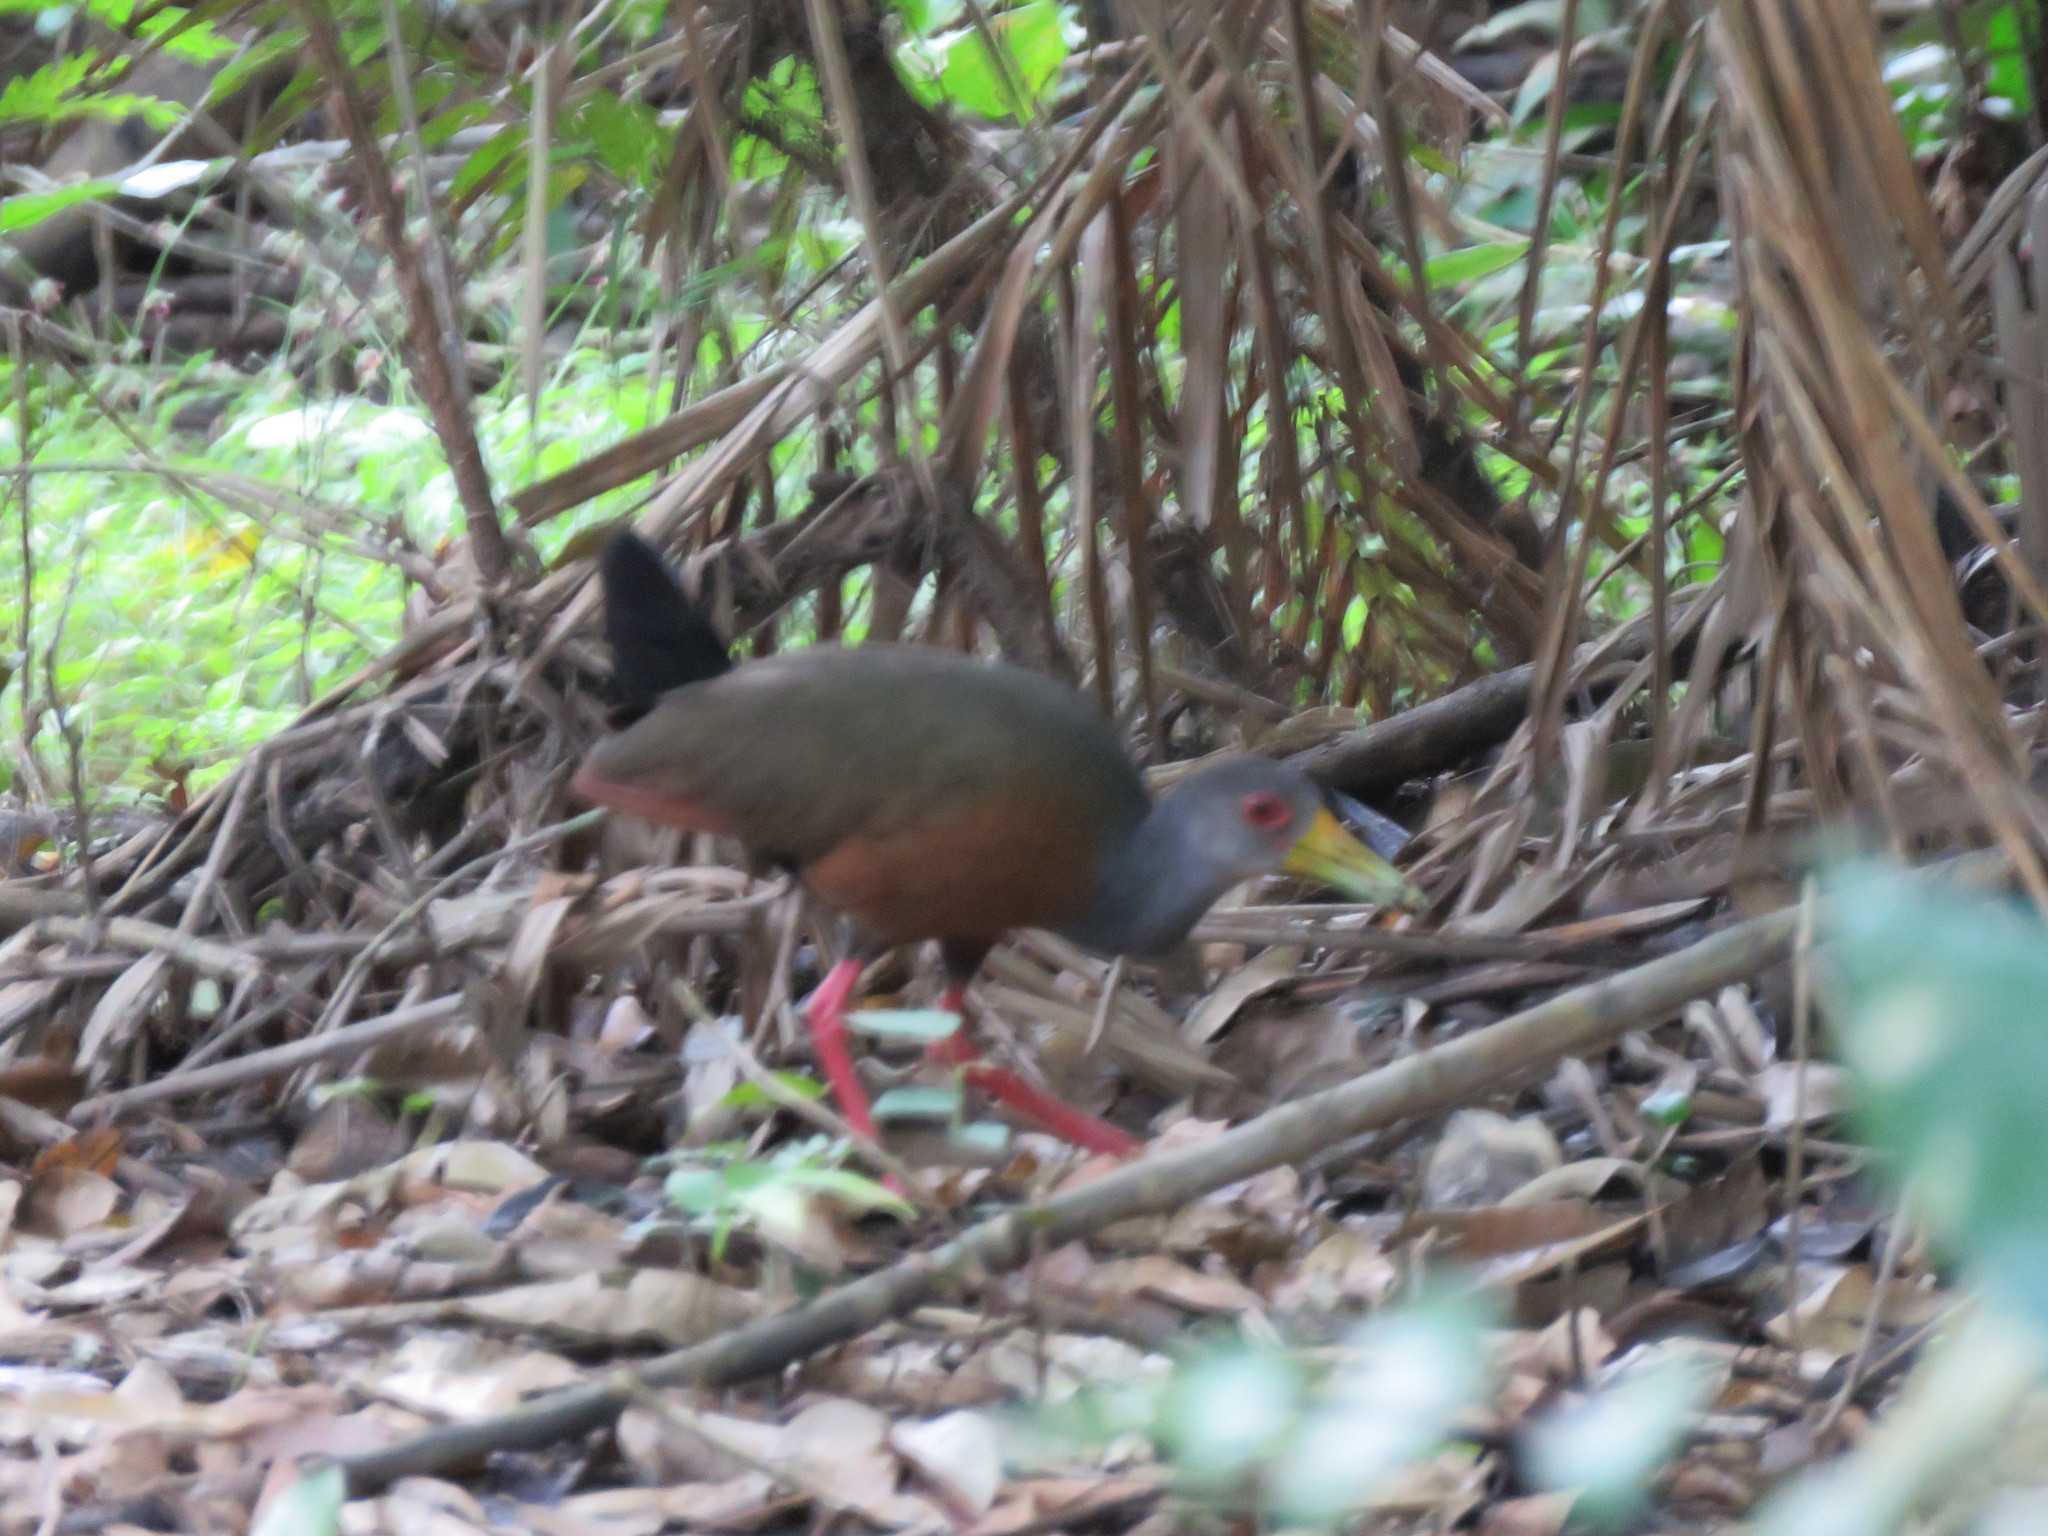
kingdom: Animalia
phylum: Chordata
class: Aves
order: Gruiformes
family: Rallidae
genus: Aramides
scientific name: Aramides cajanea
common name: Gray-necked wood-rail
